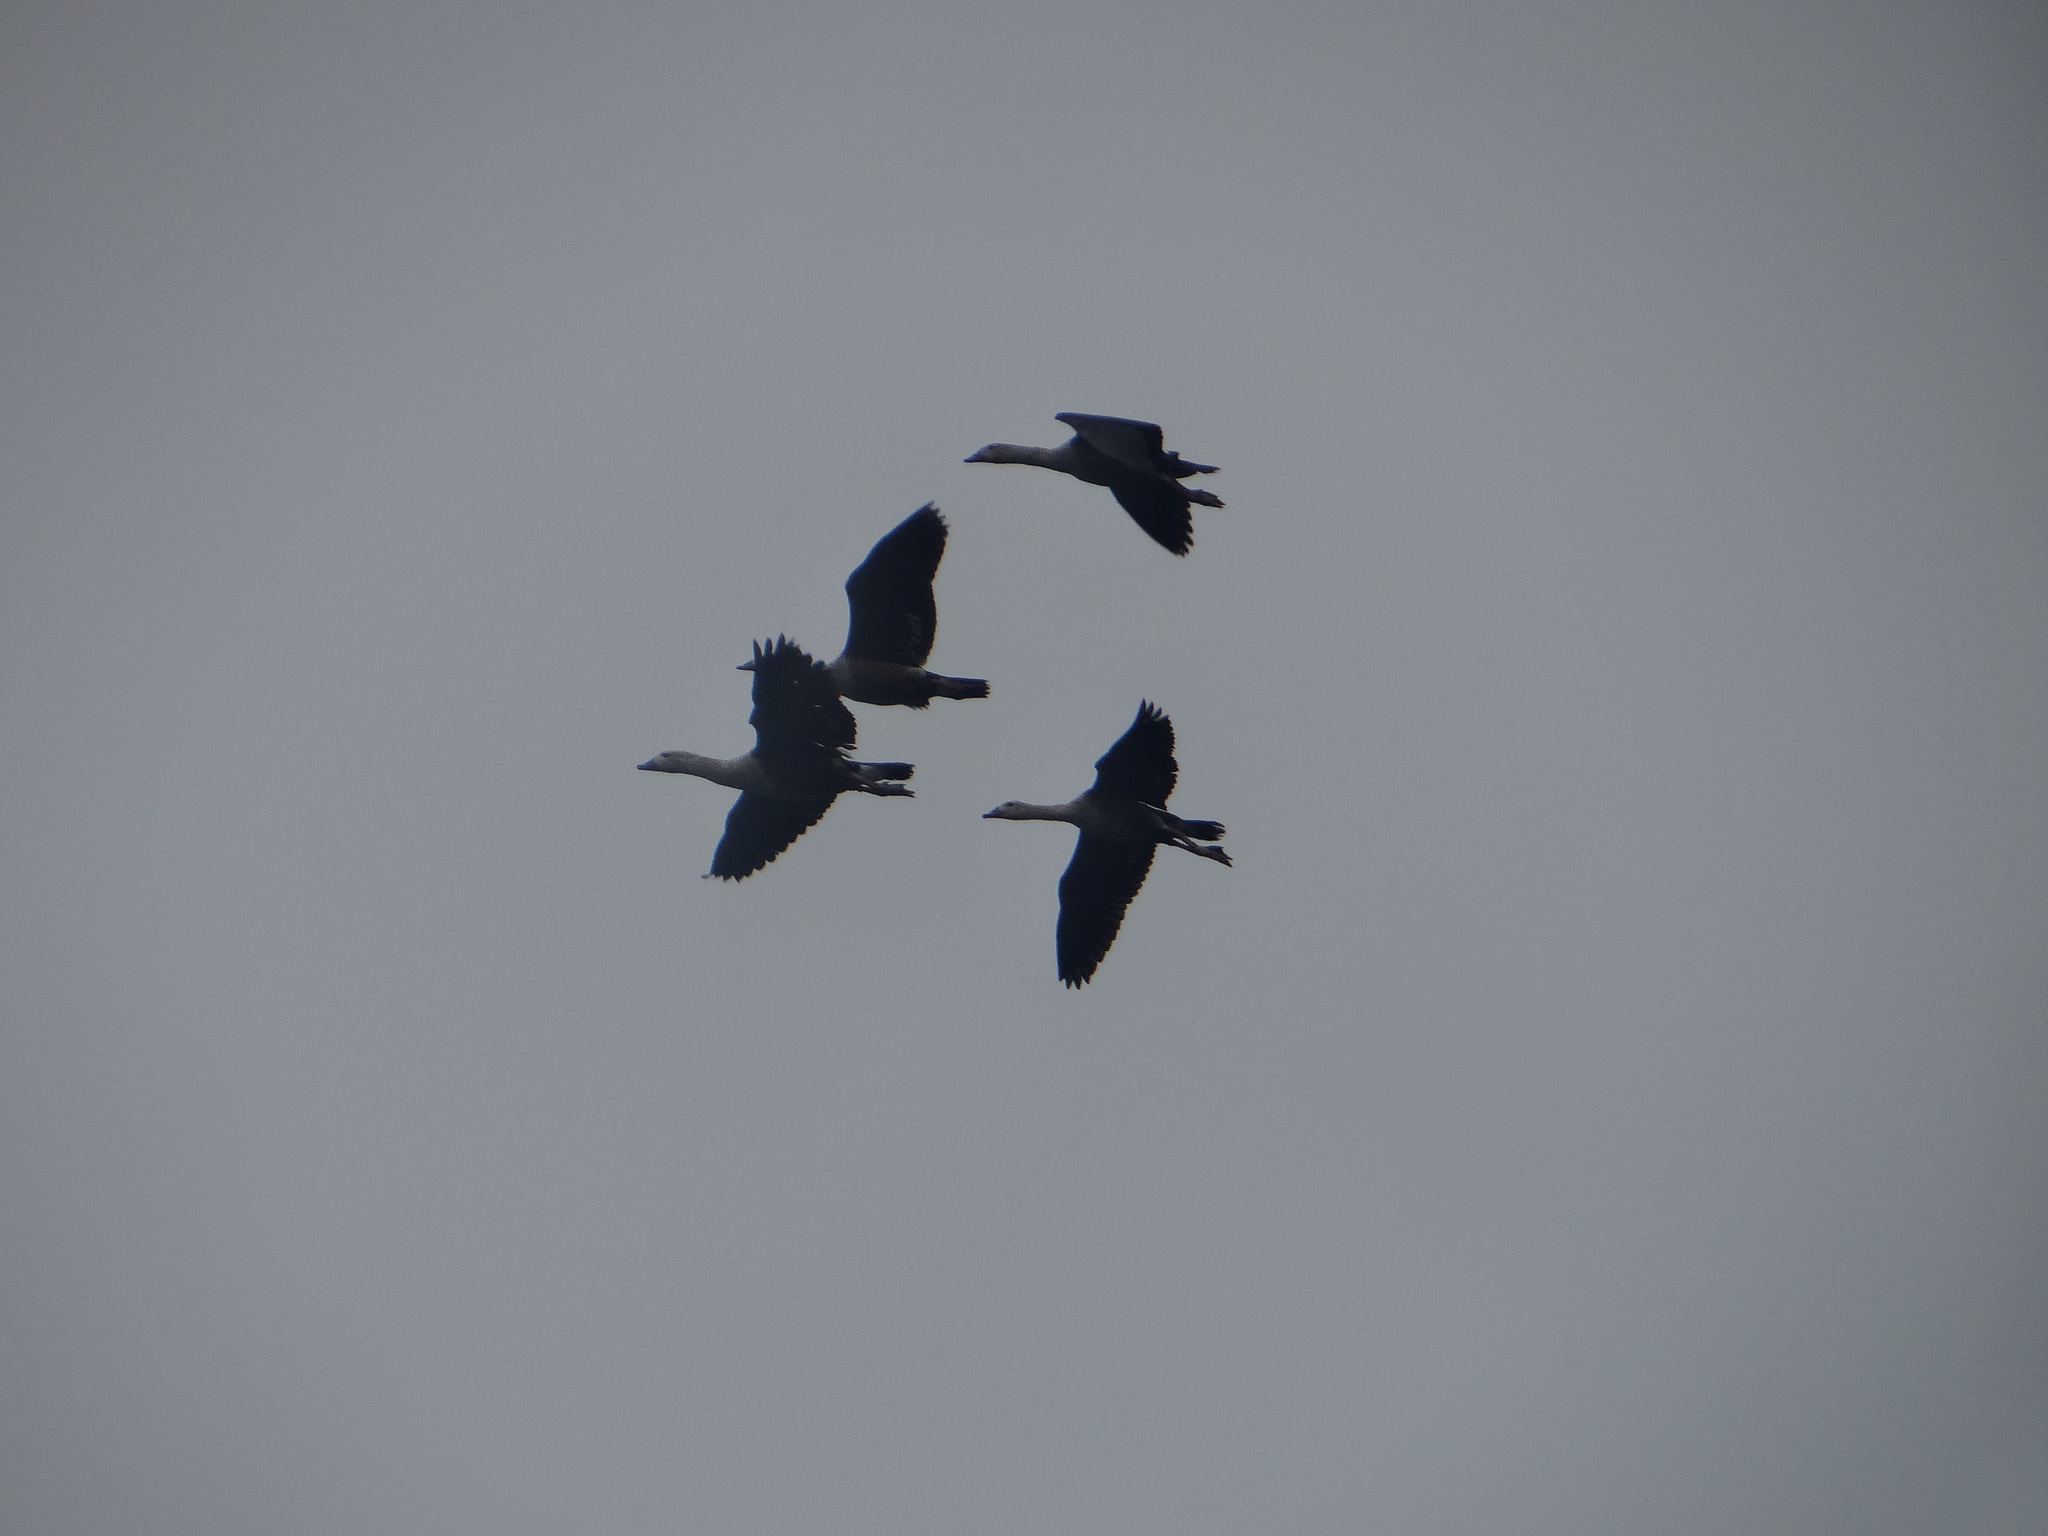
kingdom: Animalia
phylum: Chordata
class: Aves
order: Anseriformes
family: Anatidae
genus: Oressochen
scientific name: Oressochen jubatus
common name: Orinoco goose
